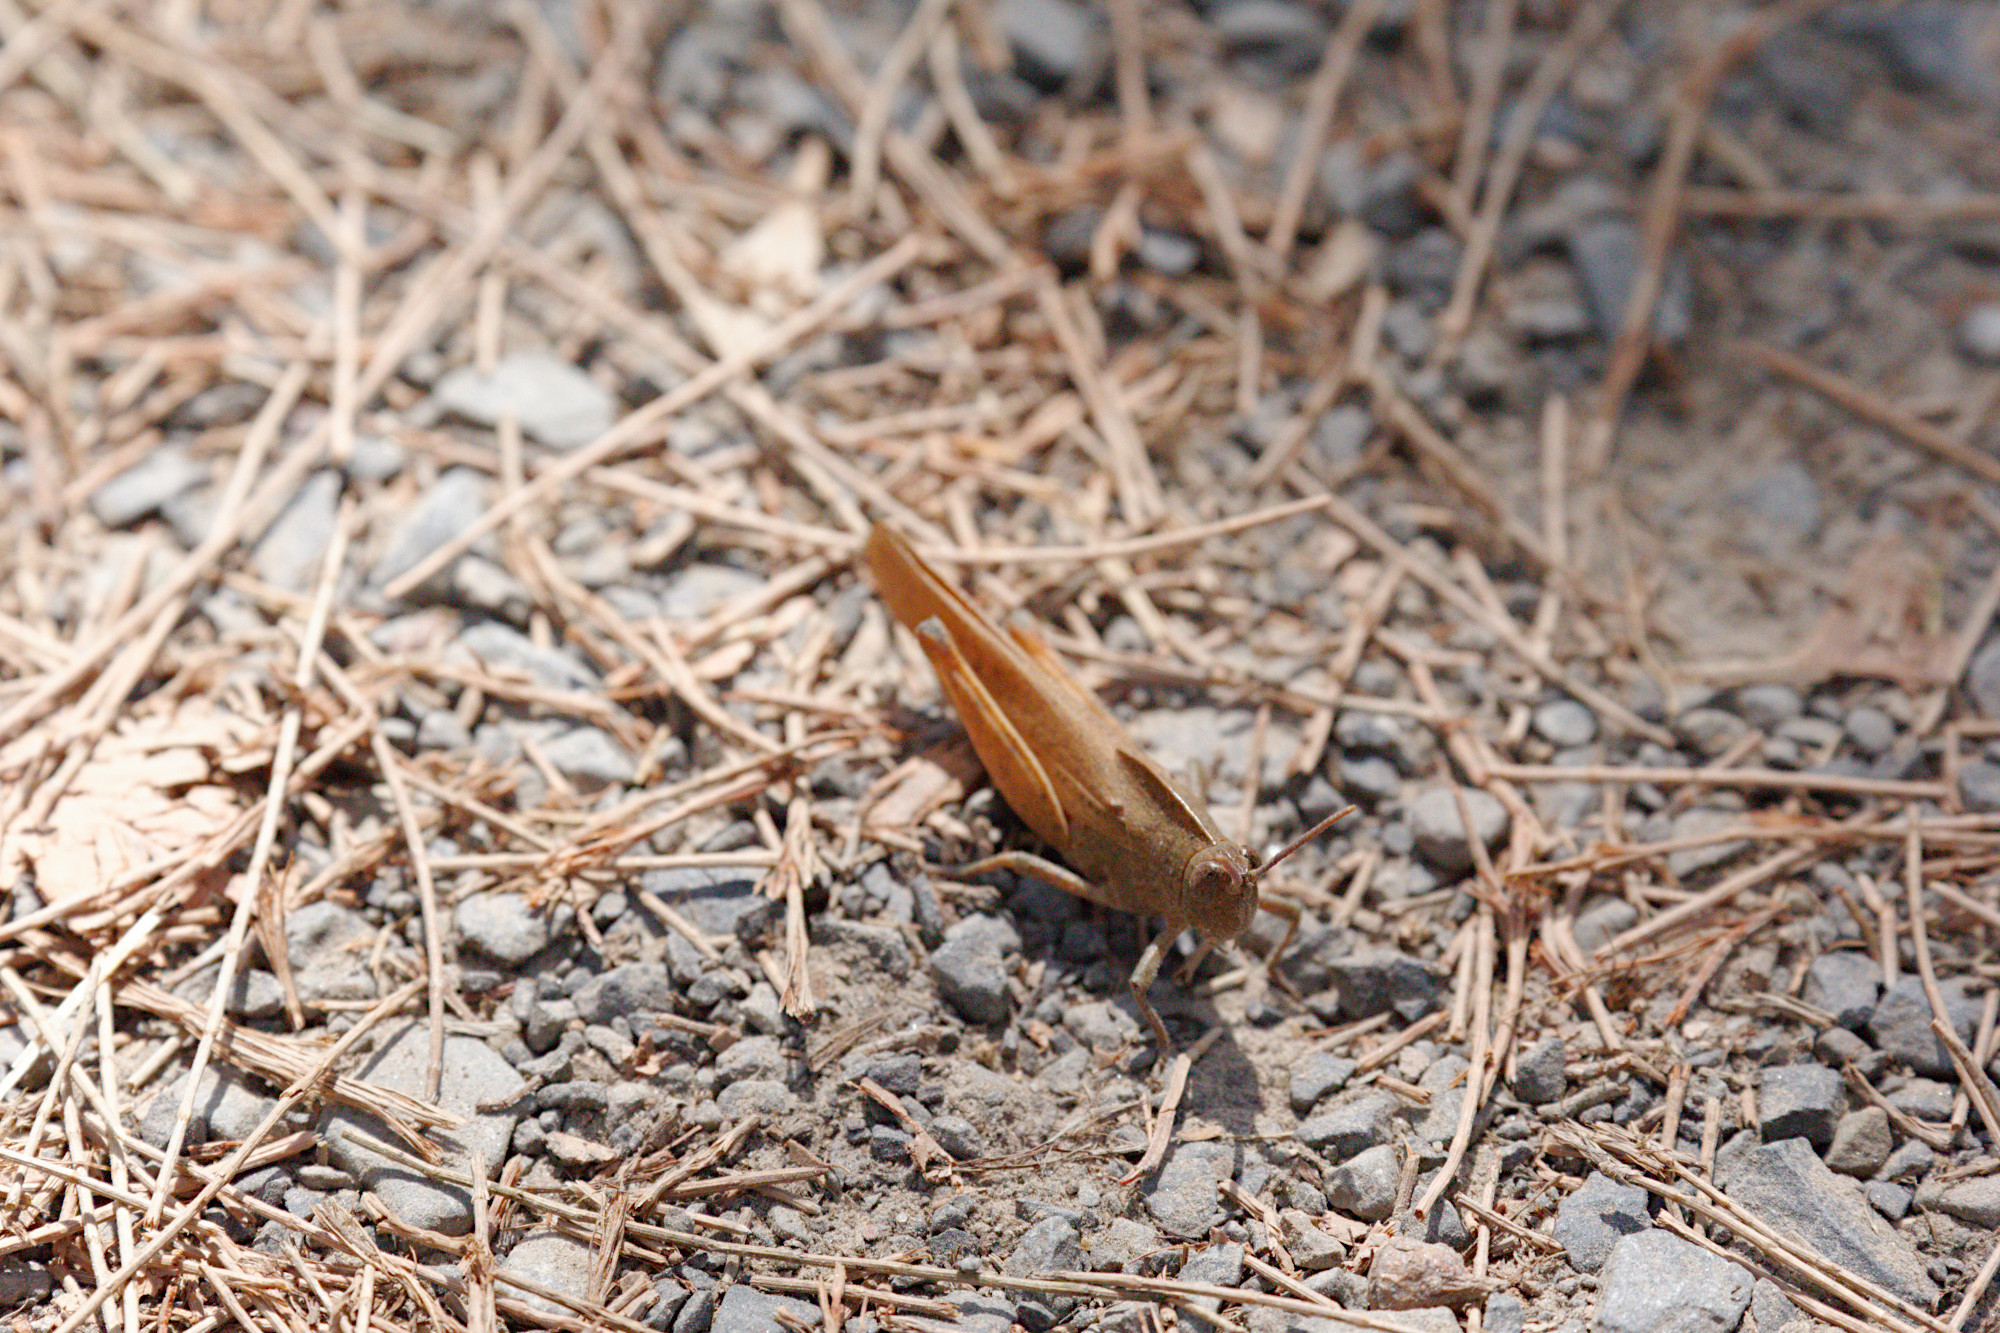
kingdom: Animalia
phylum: Arthropoda
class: Insecta
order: Orthoptera
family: Acrididae
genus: Goniaea
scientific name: Goniaea australasiae
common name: Gumleaf grasshopper
